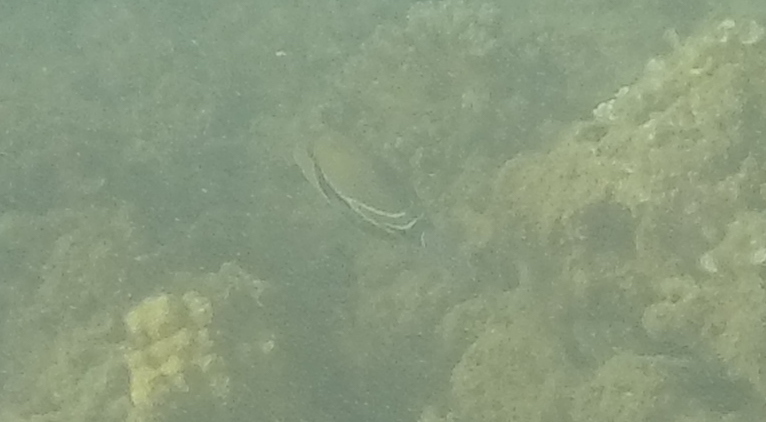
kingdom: Animalia
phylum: Chordata
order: Tetraodontiformes
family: Balistidae
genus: Rhinecanthus
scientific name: Rhinecanthus rectangulus
